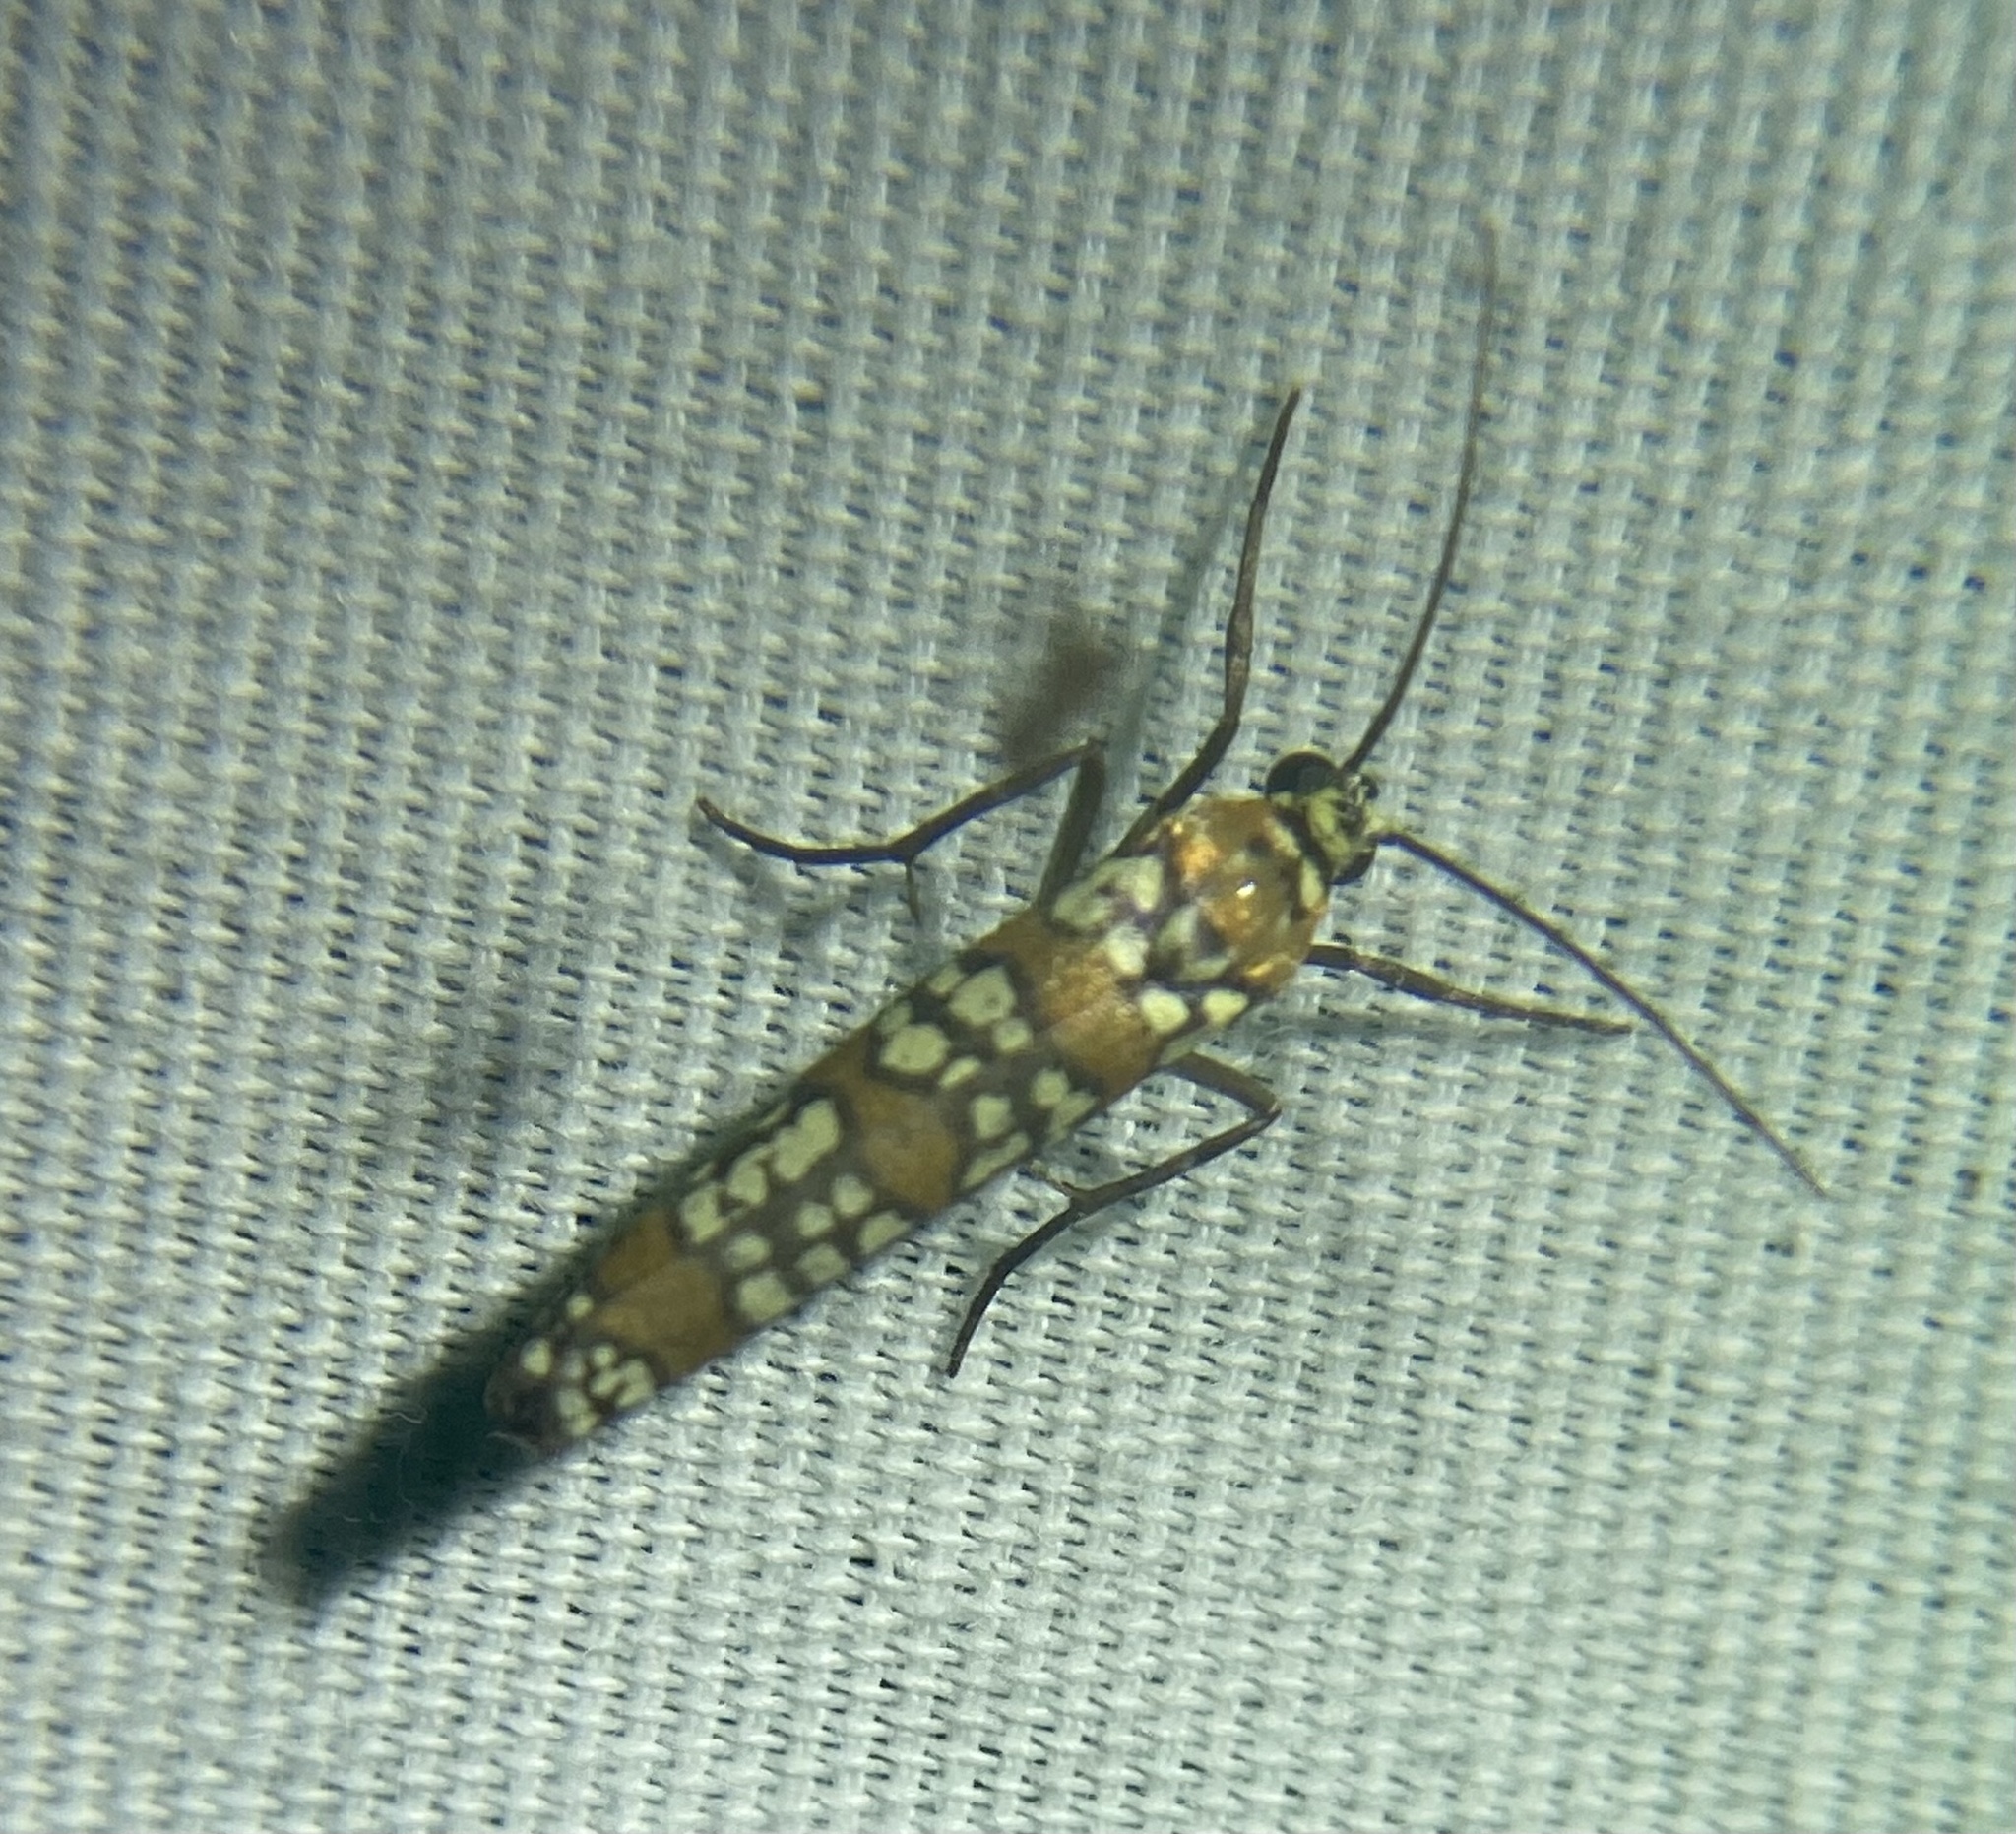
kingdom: Animalia
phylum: Arthropoda
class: Insecta
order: Lepidoptera
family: Attevidae
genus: Atteva
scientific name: Atteva punctella
